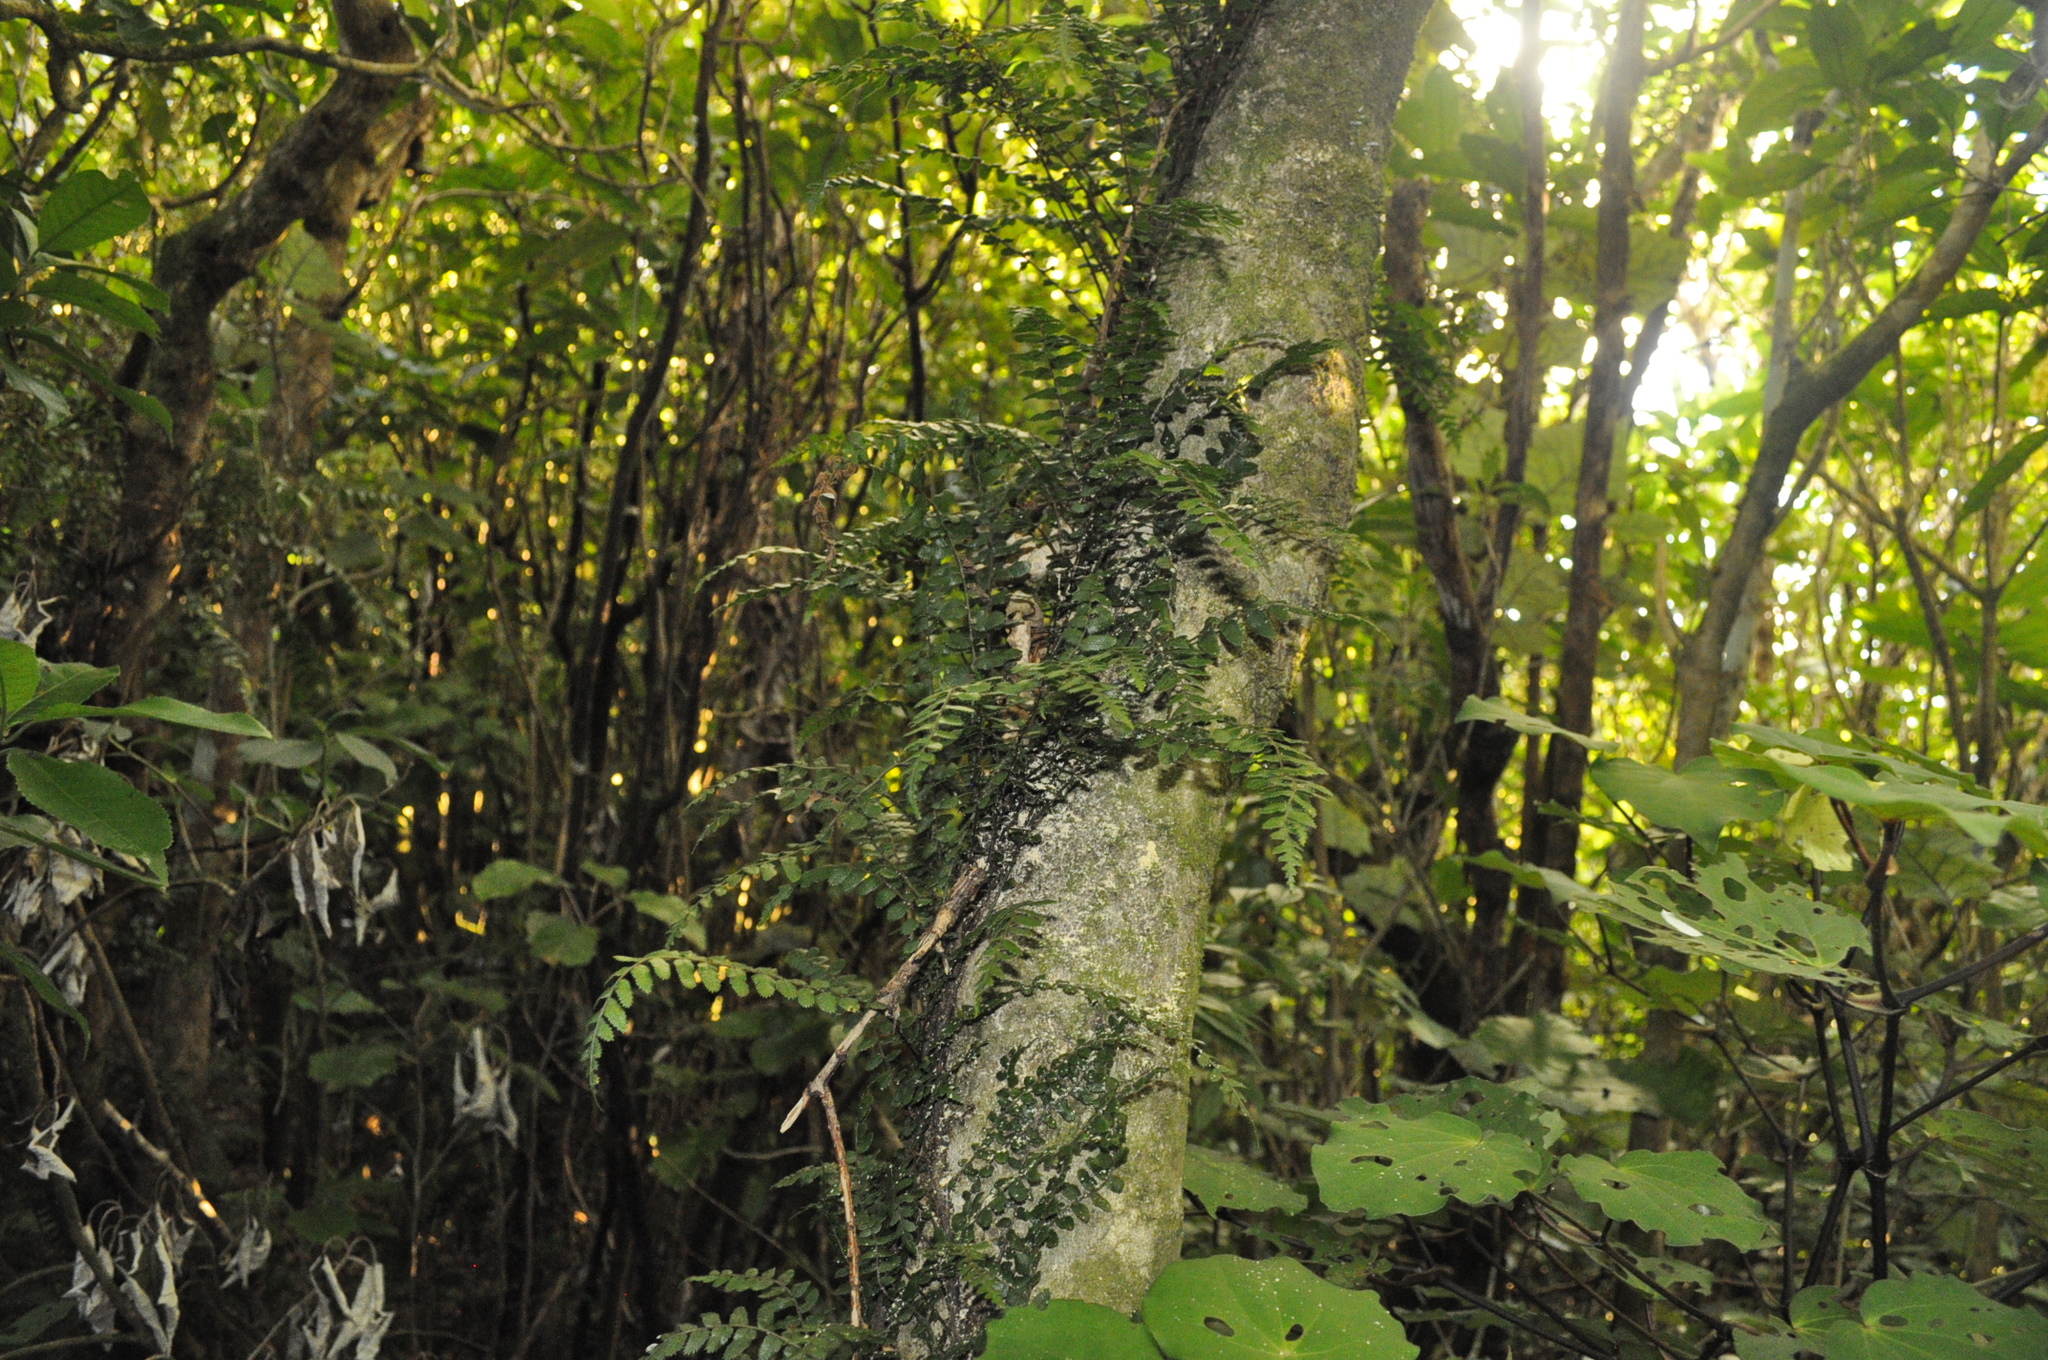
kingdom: Plantae
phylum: Tracheophyta
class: Polypodiopsida
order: Polypodiales
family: Blechnaceae
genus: Icarus
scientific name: Icarus filiformis
